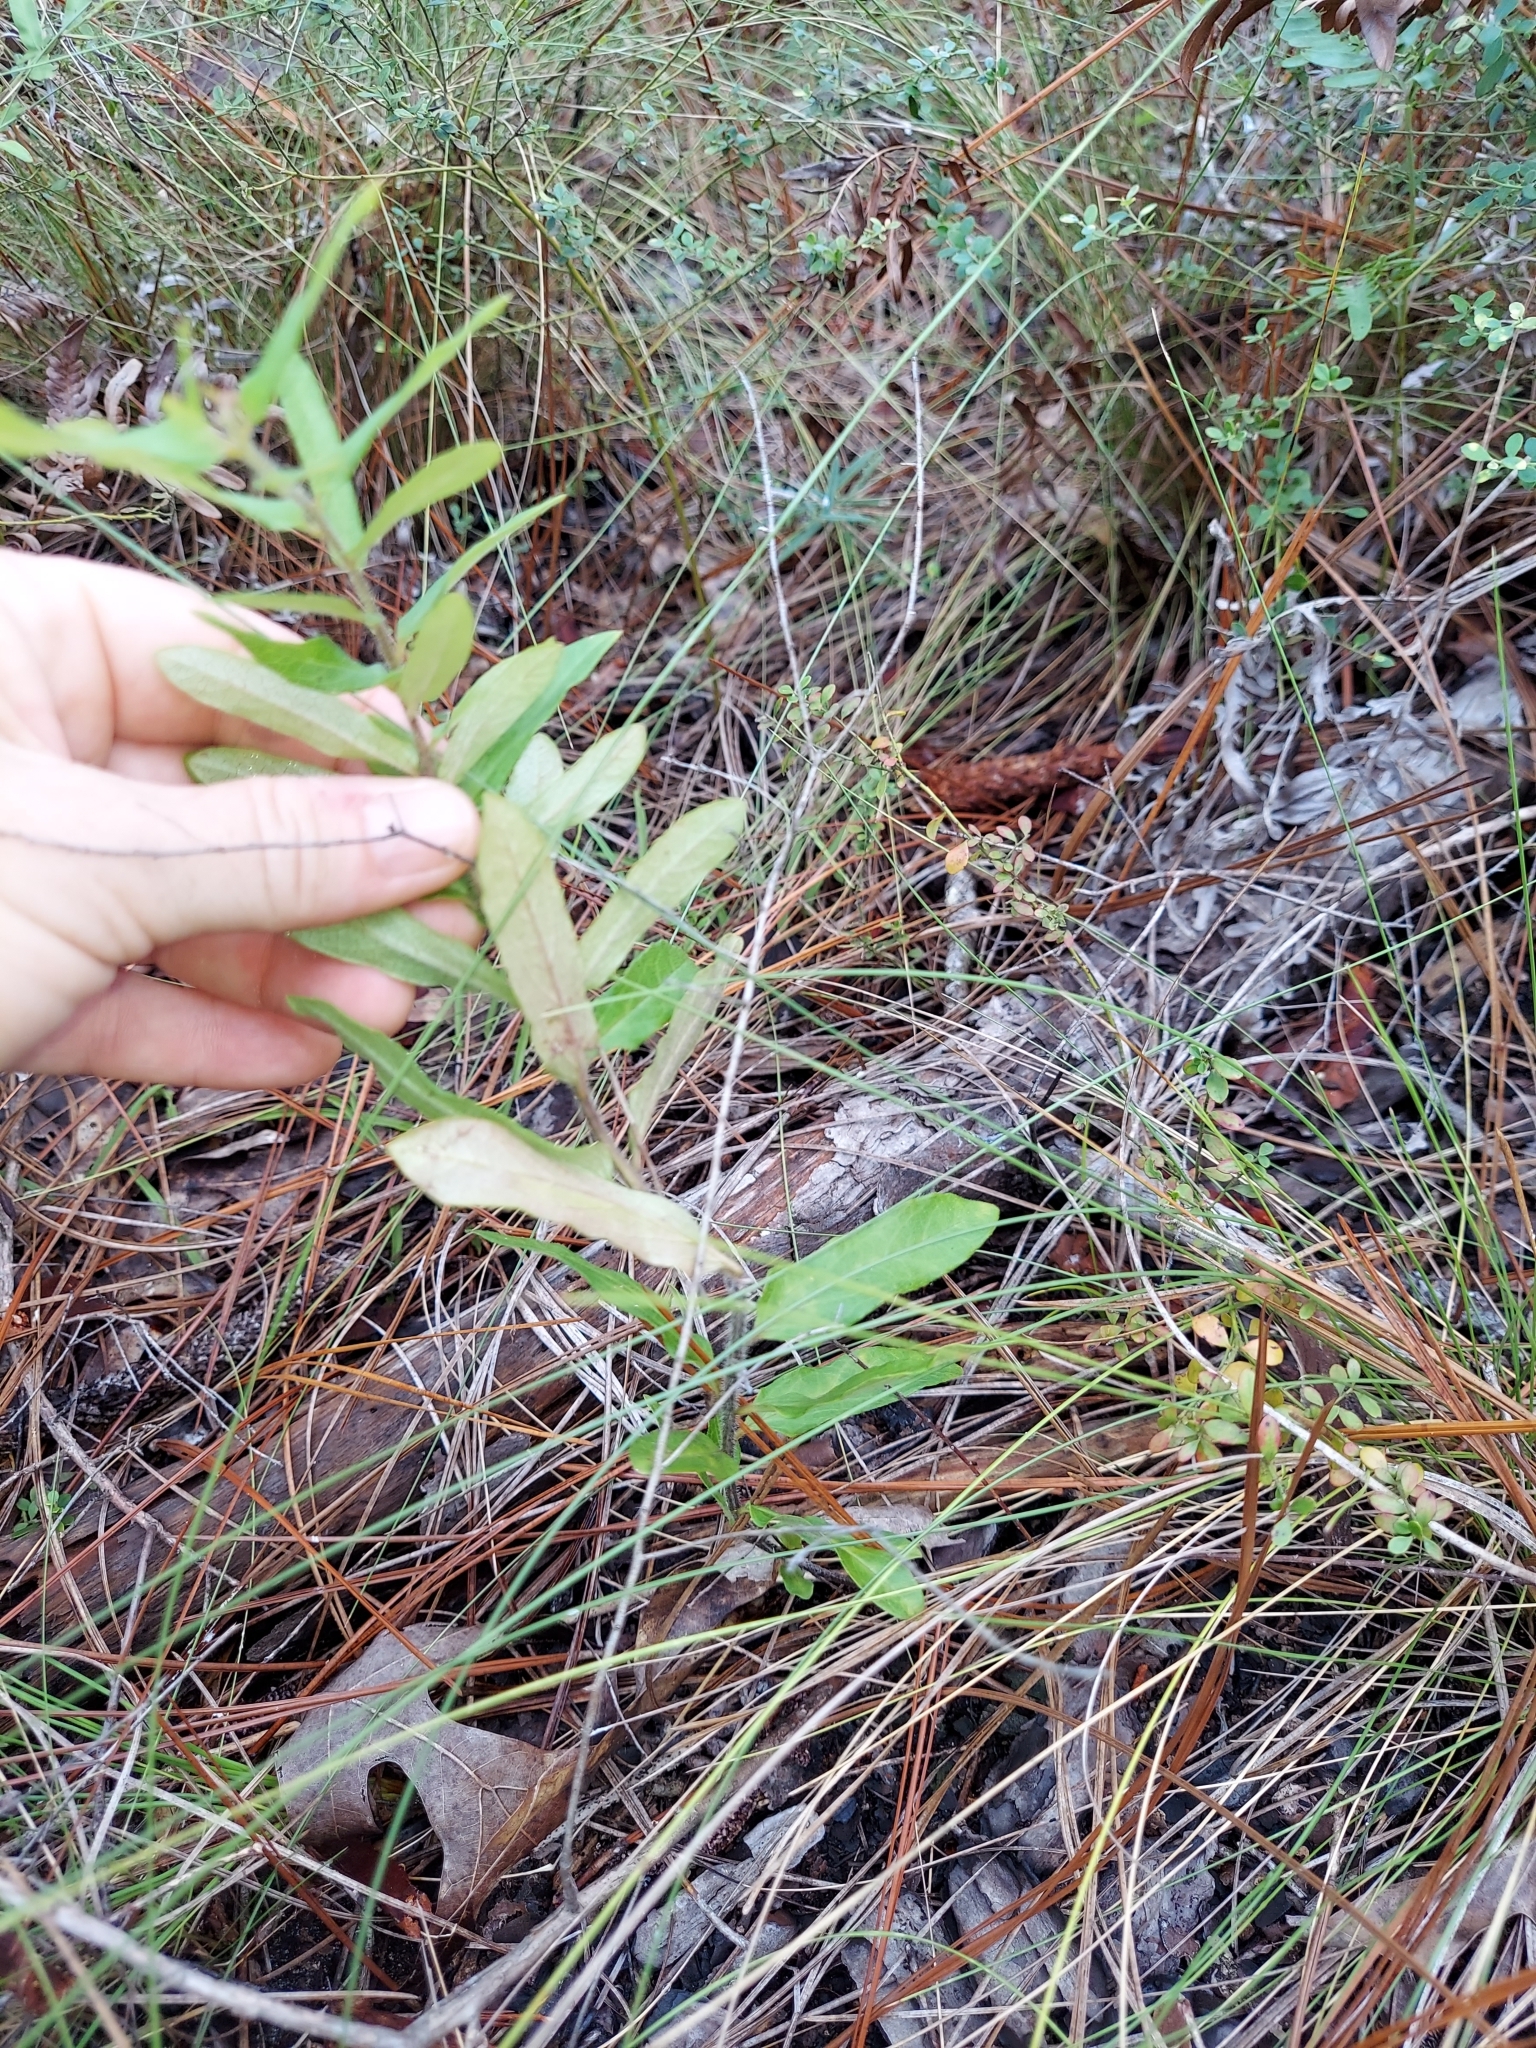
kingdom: Plantae
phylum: Tracheophyta
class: Magnoliopsida
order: Gentianales
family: Apocynaceae
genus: Asclepias
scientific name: Asclepias tuberosa
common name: Butterfly milkweed
